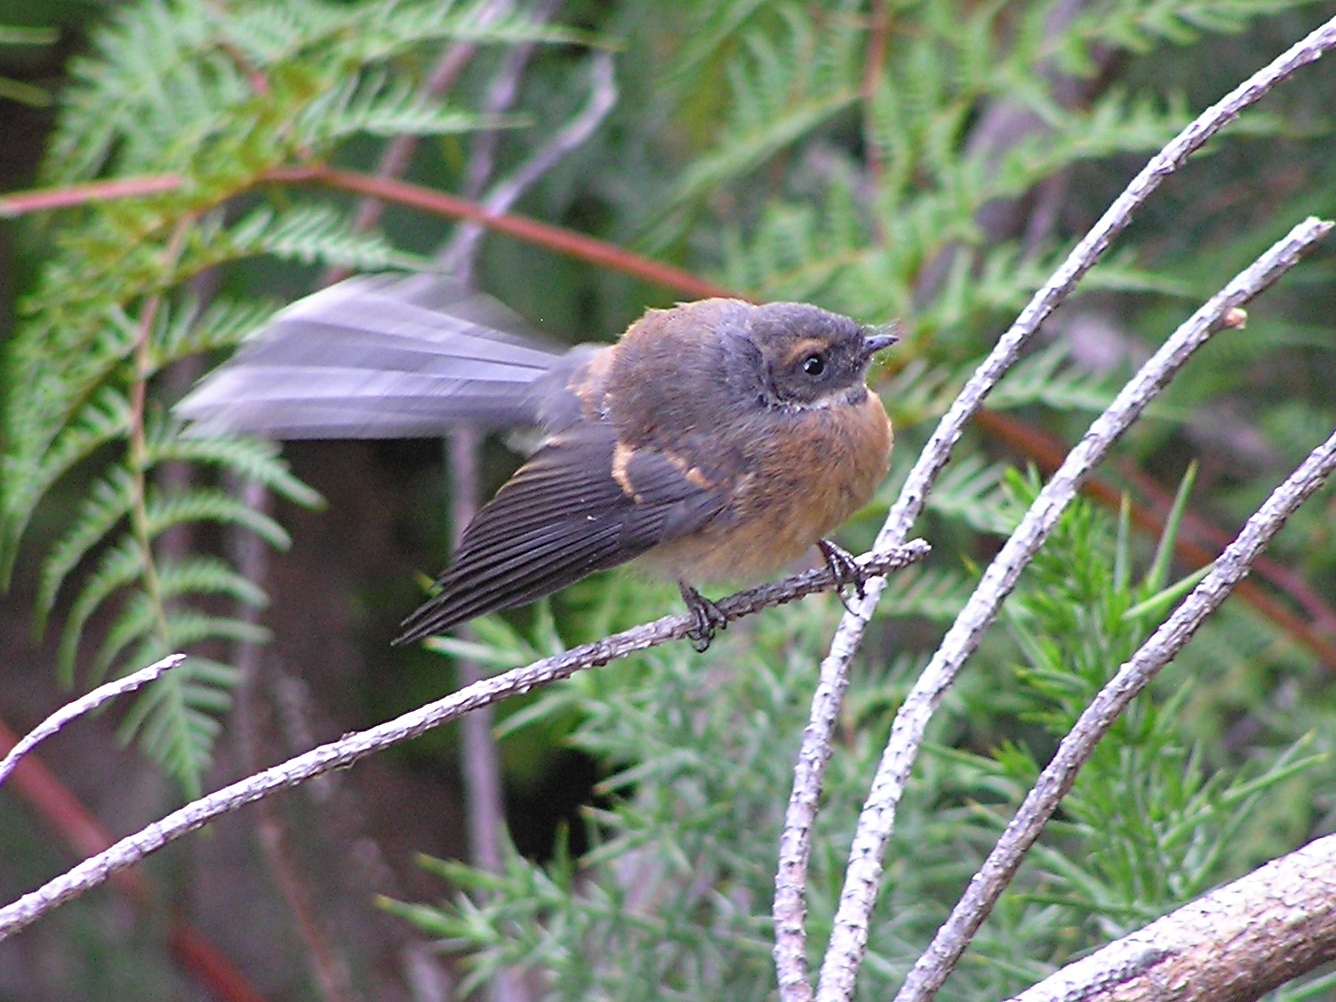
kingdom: Animalia
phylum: Chordata
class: Aves
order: Passeriformes
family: Rhipiduridae
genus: Rhipidura
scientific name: Rhipidura fuliginosa
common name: New zealand fantail
